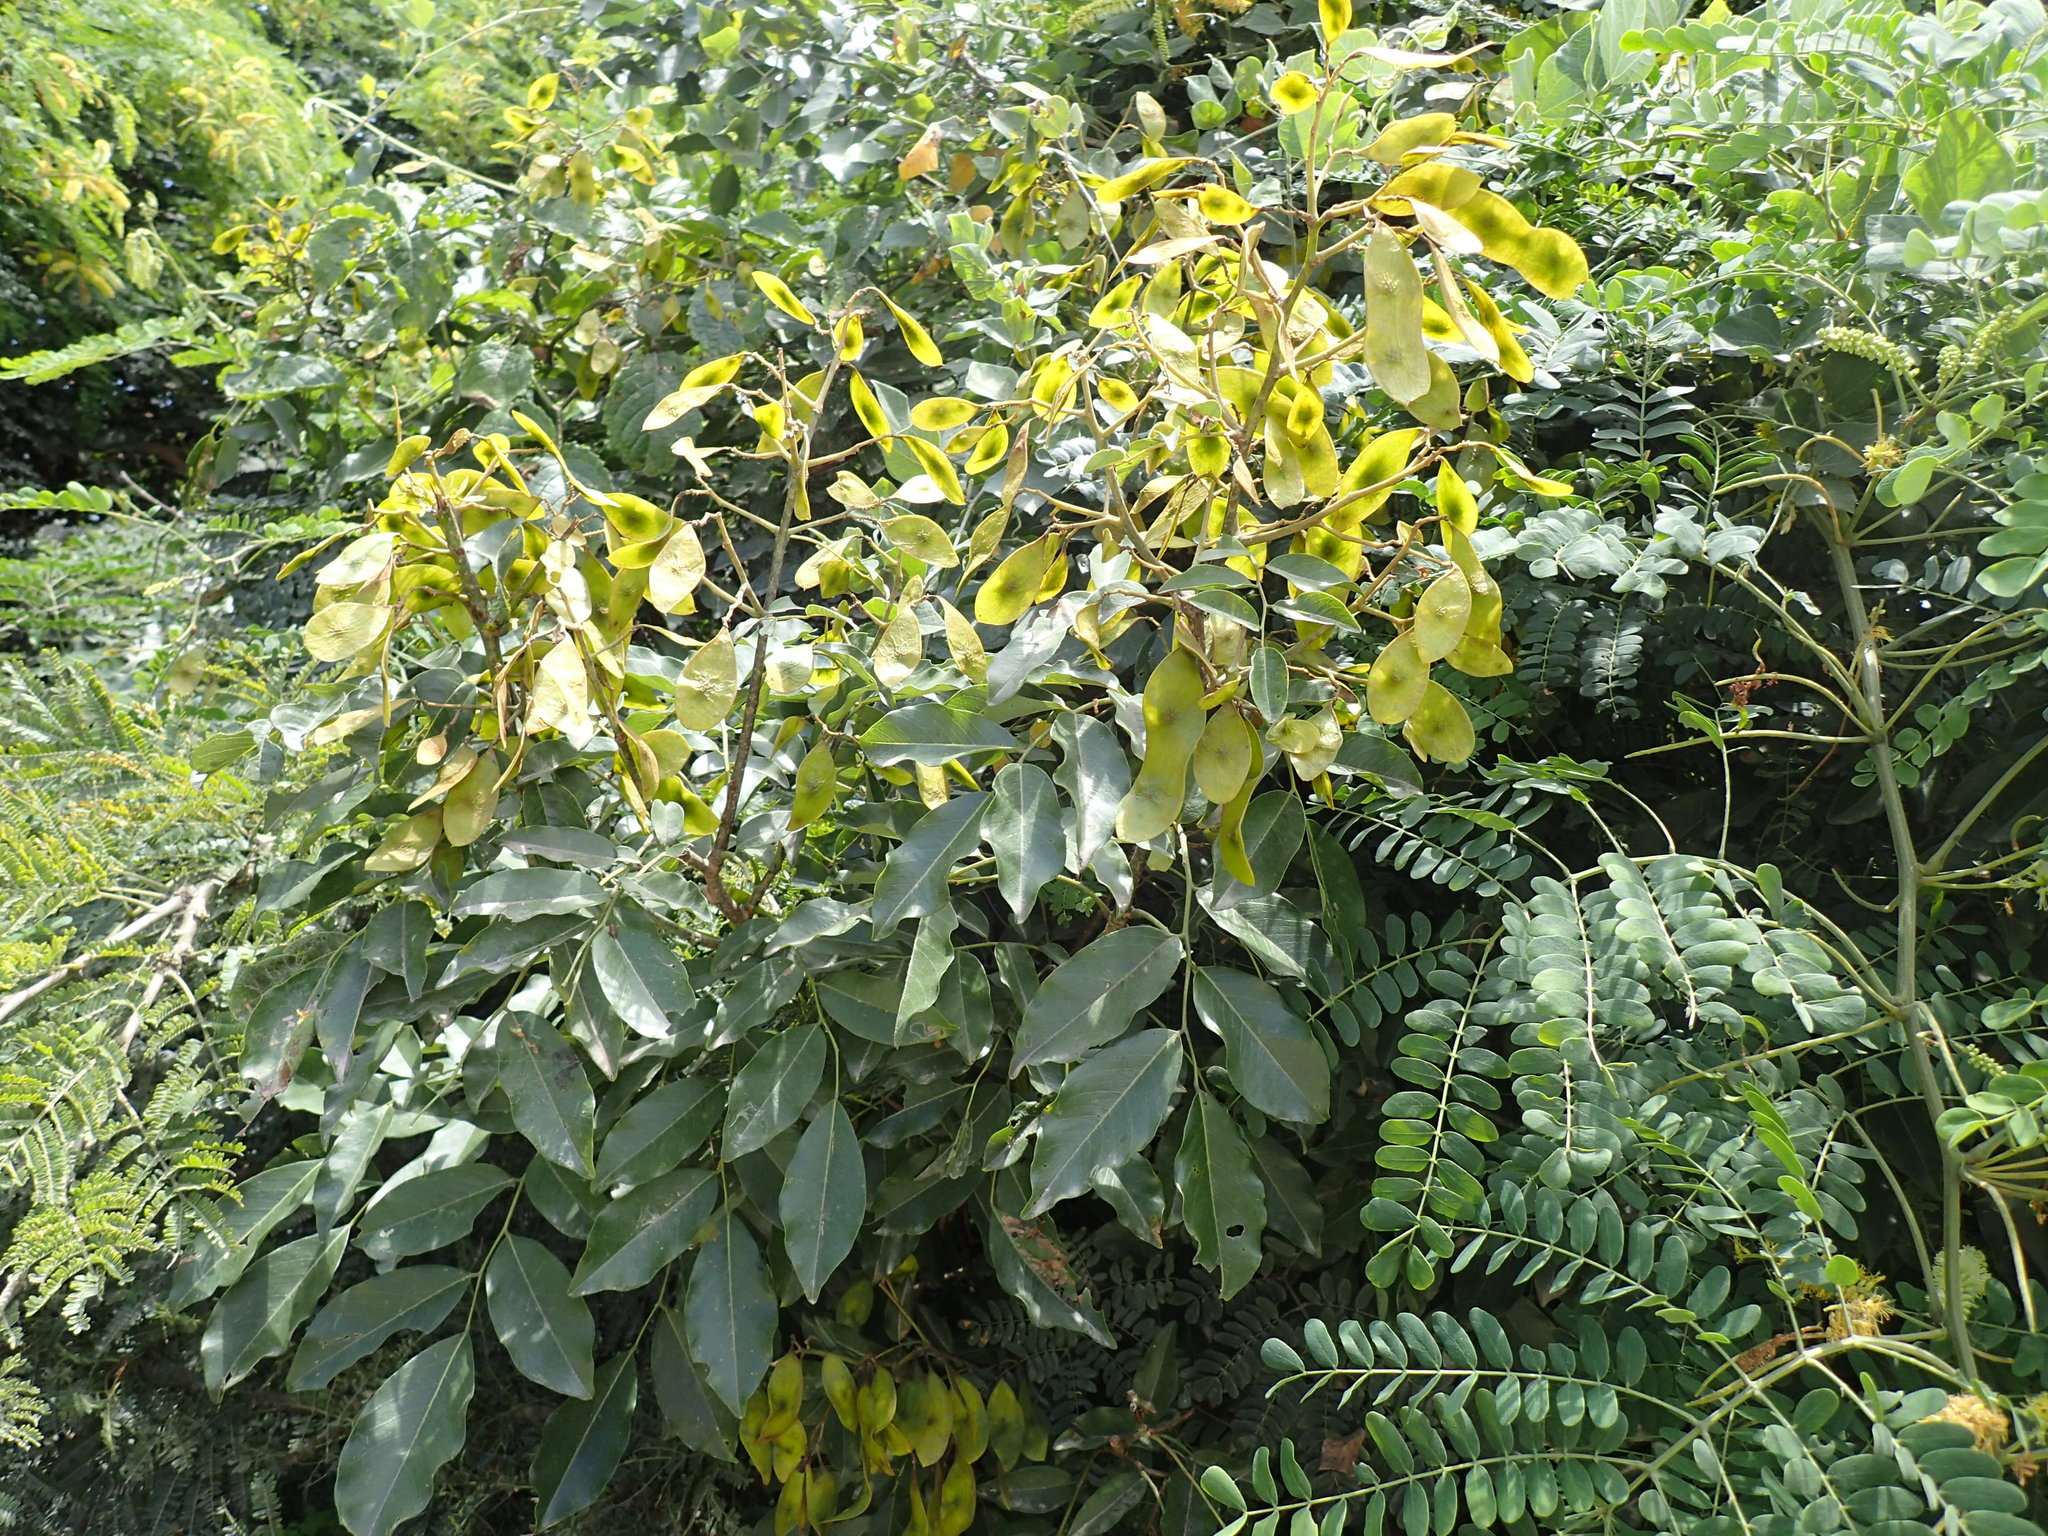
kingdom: Plantae
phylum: Tracheophyta
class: Magnoliopsida
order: Fabales
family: Fabaceae
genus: Dalbergia
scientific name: Dalbergia obovata
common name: Climbing flat-bean
